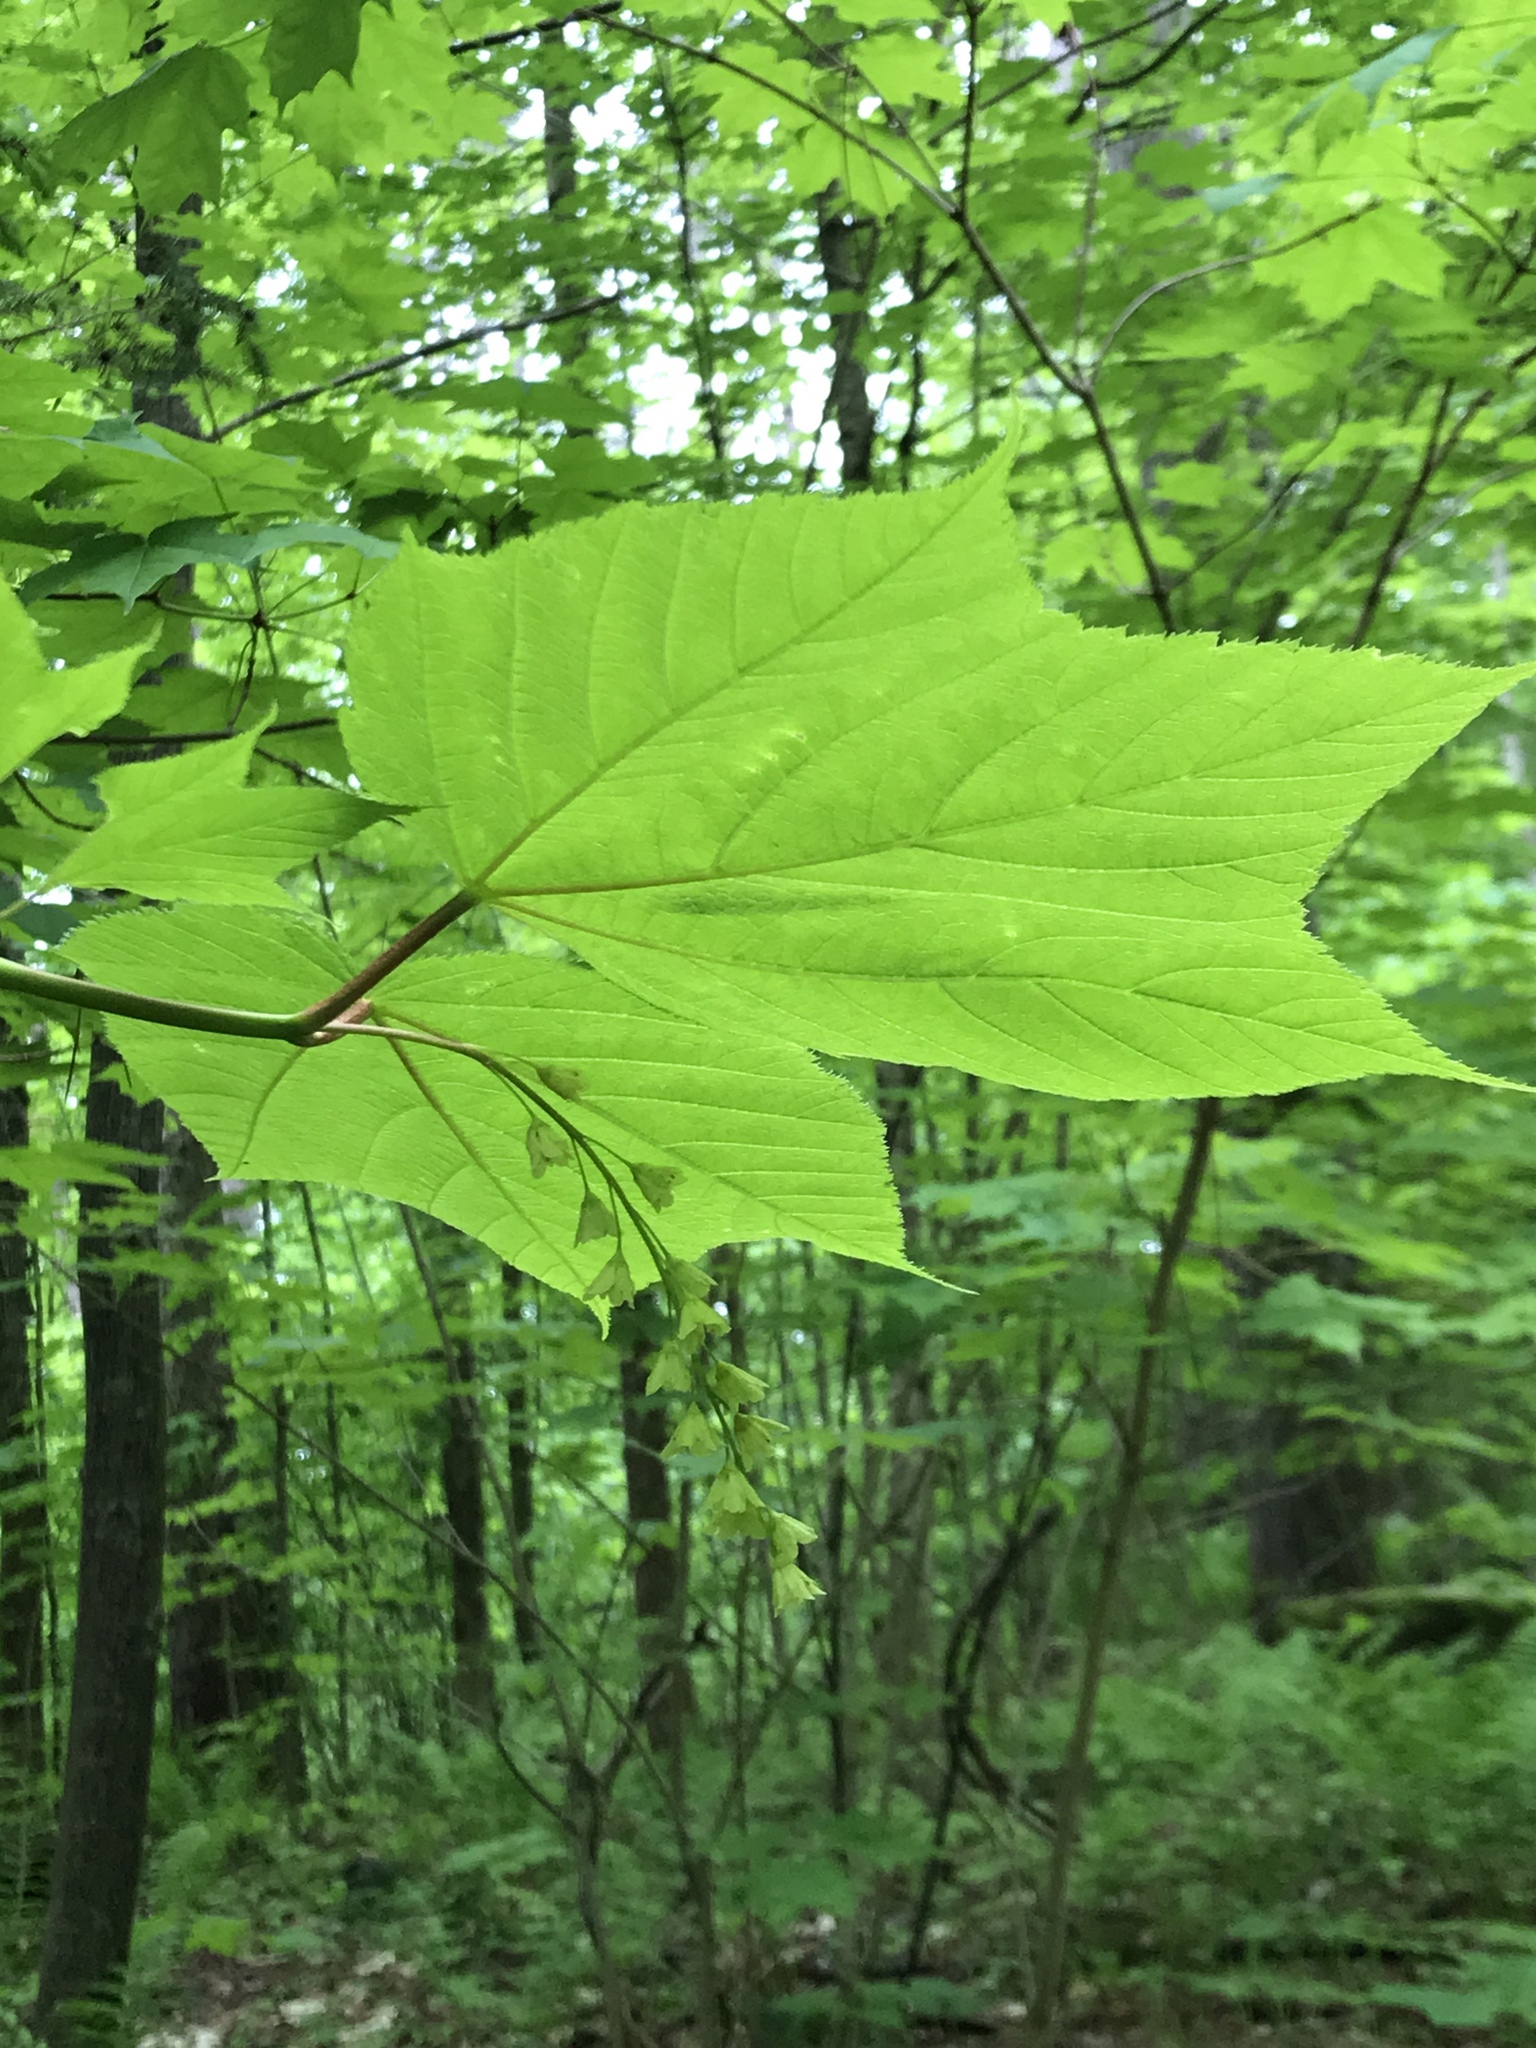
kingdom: Plantae
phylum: Tracheophyta
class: Magnoliopsida
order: Sapindales
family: Sapindaceae
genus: Acer
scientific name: Acer pensylvanicum
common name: Moosewood
